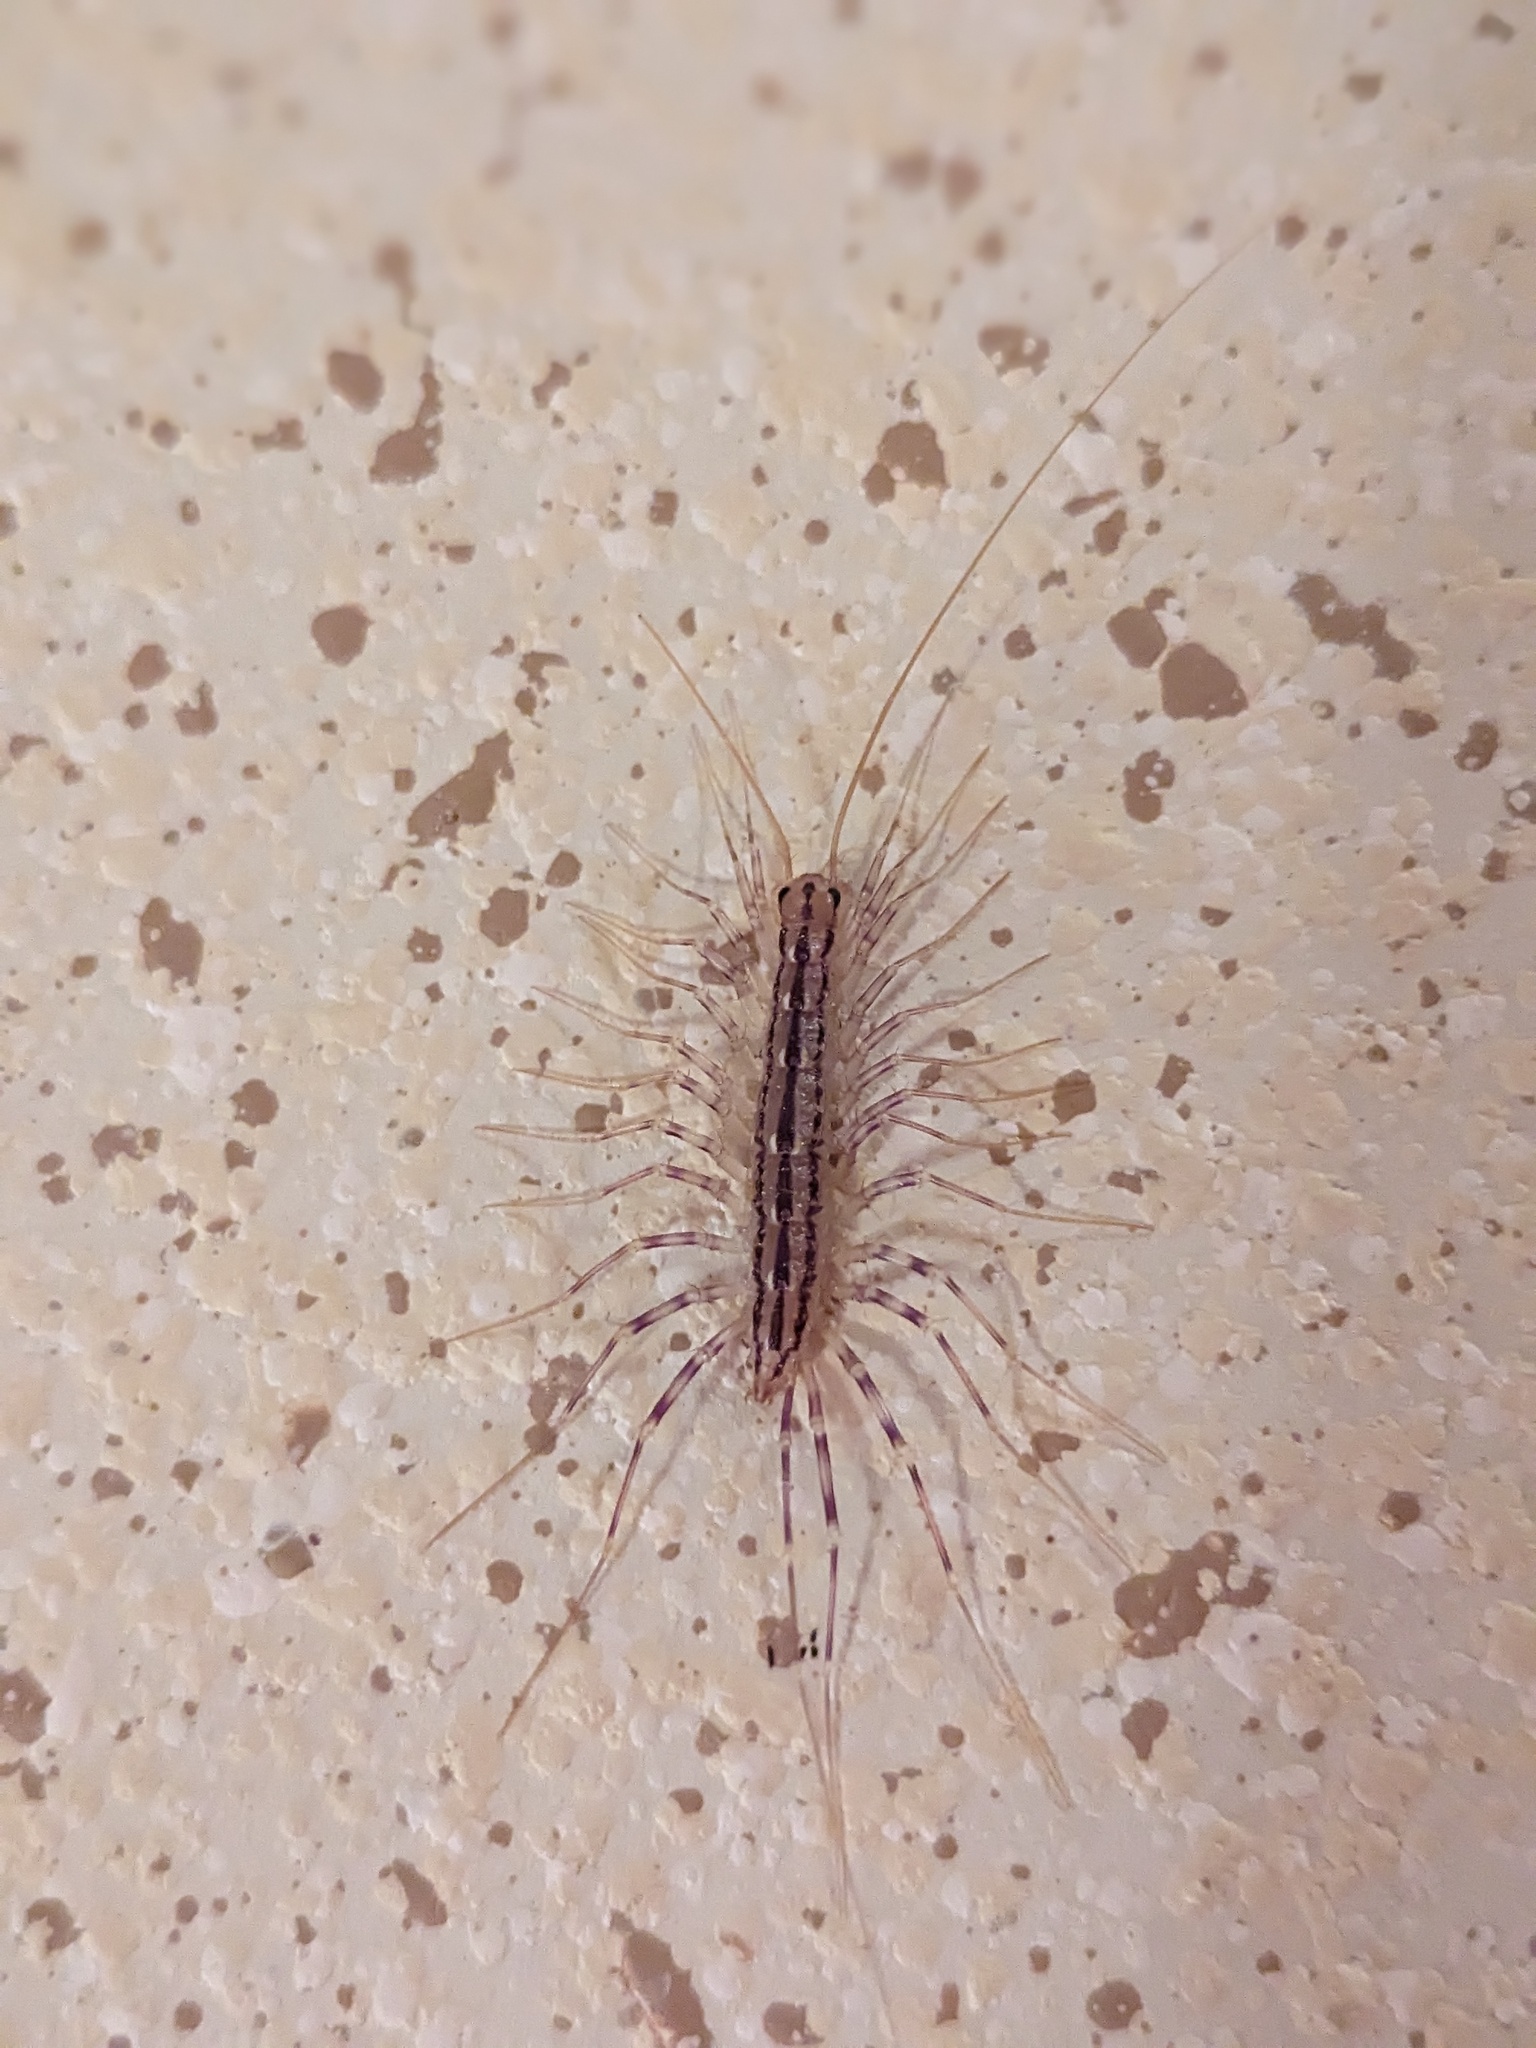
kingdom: Animalia
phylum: Arthropoda
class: Chilopoda
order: Scutigeromorpha
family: Scutigeridae
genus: Scutigera
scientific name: Scutigera coleoptrata
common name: House centipede
